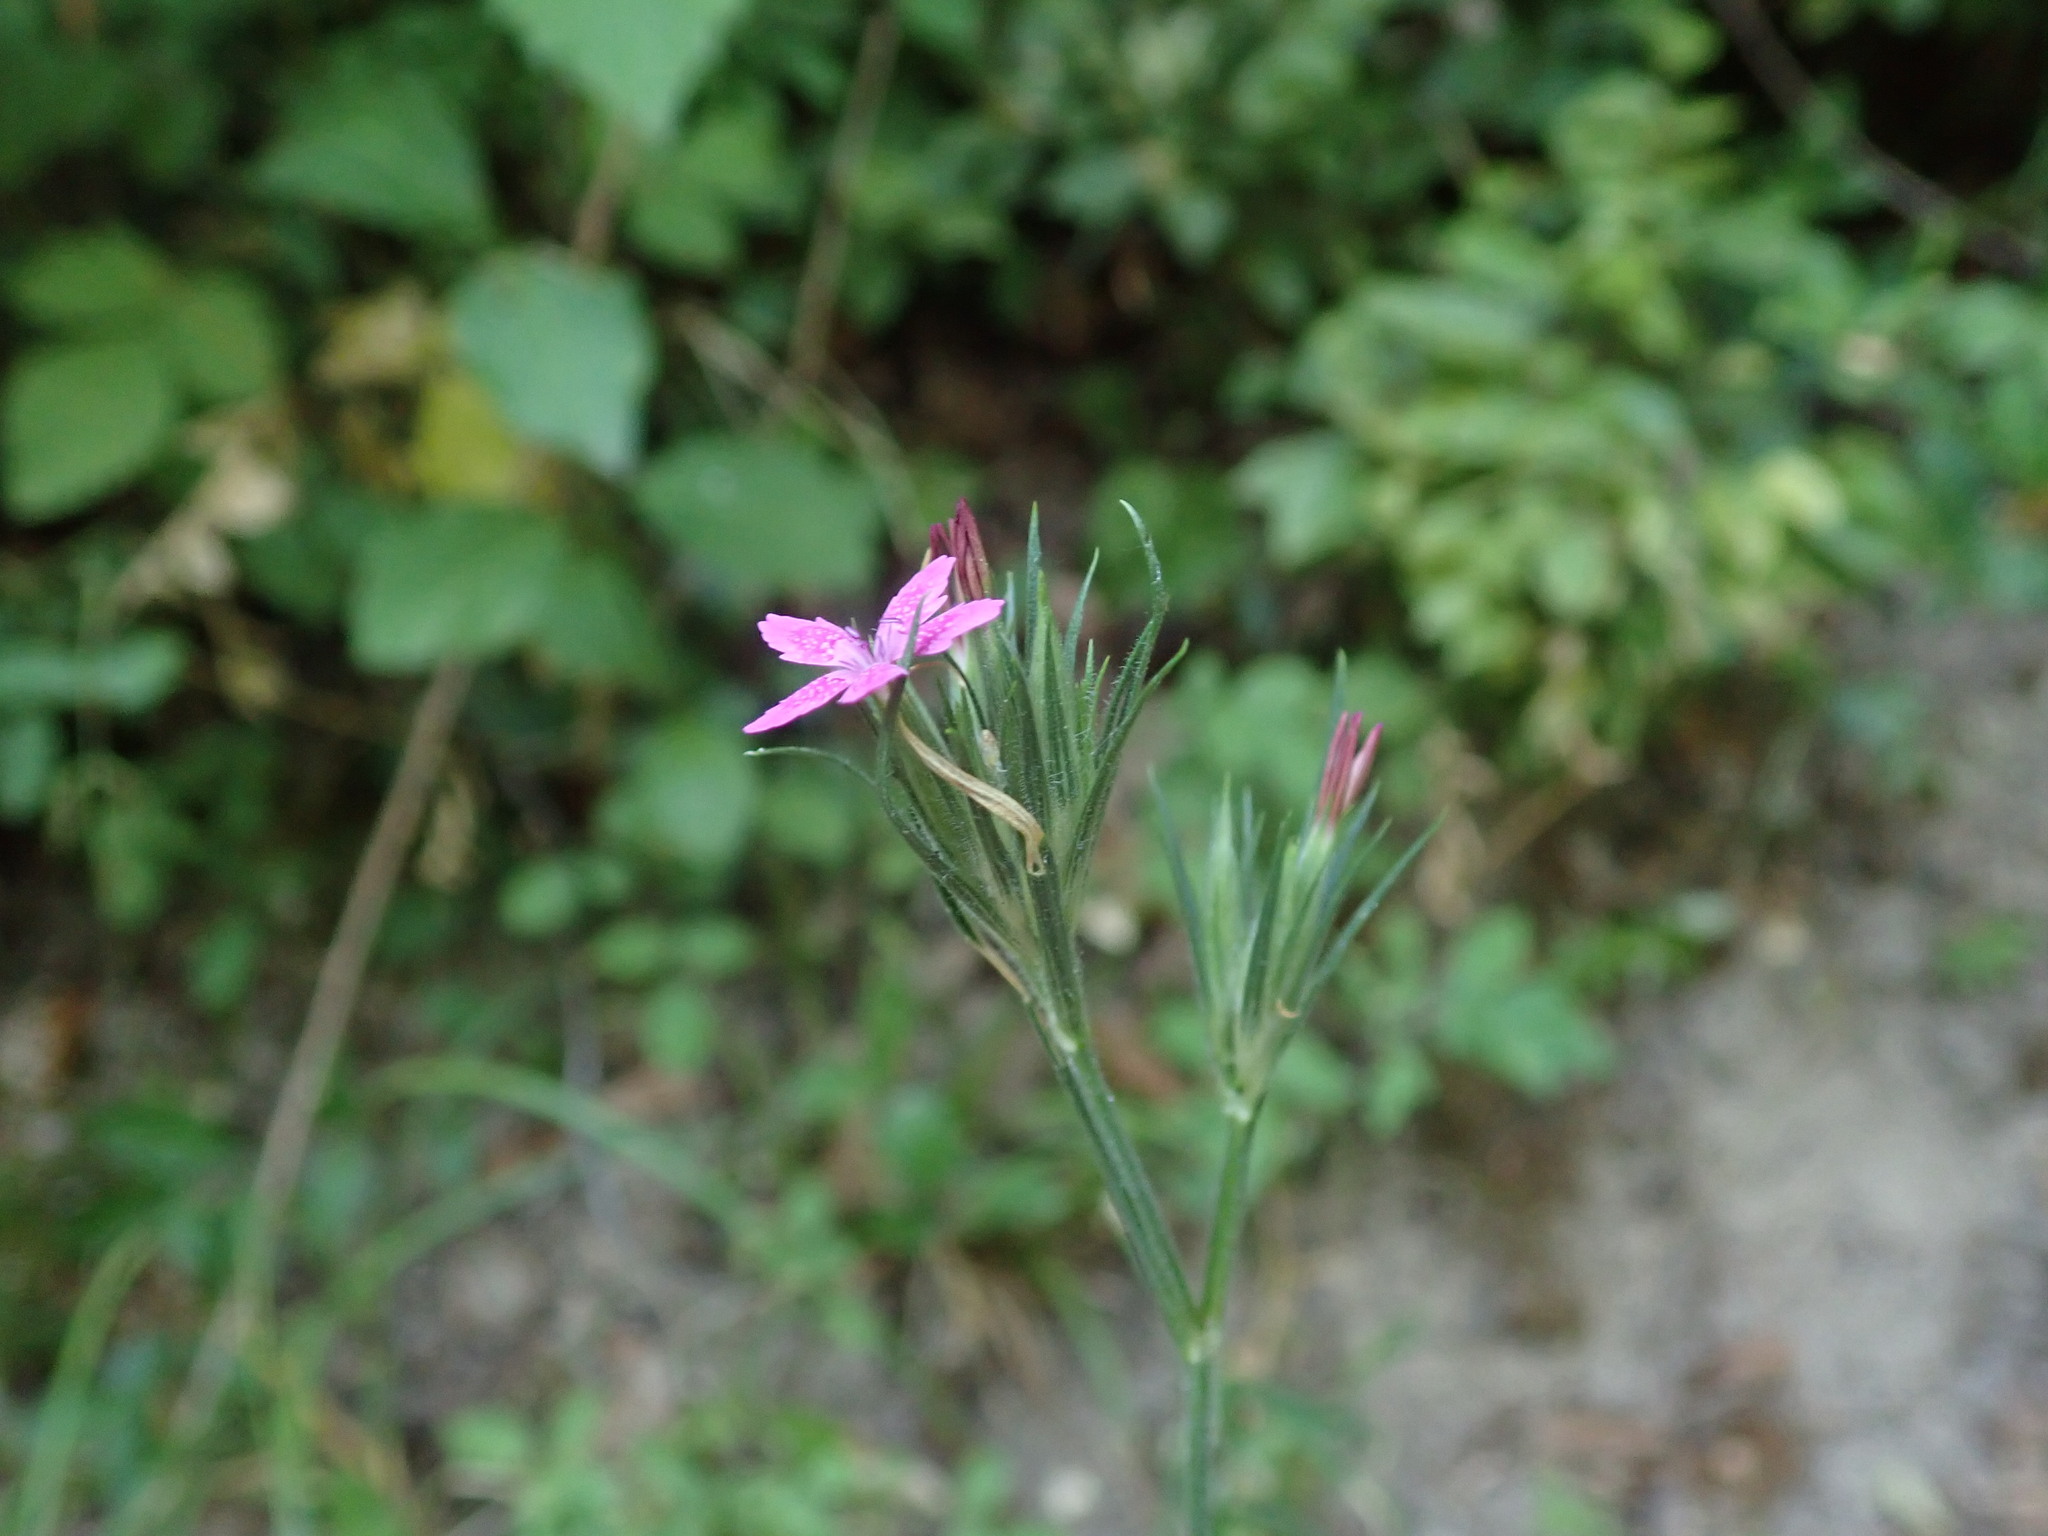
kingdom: Plantae
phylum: Tracheophyta
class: Magnoliopsida
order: Caryophyllales
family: Caryophyllaceae
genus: Dianthus
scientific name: Dianthus armeria
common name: Deptford pink
